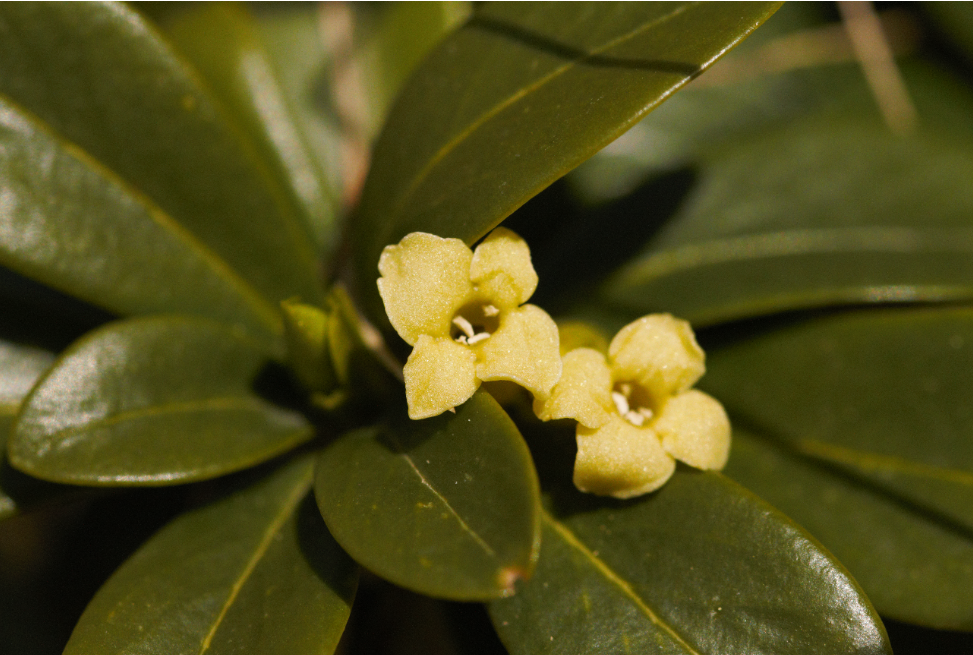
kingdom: Plantae
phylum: Tracheophyta
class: Magnoliopsida
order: Malvales
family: Thymelaeaceae
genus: Daphne
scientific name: Daphne laureola
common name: Spurge-laurel
